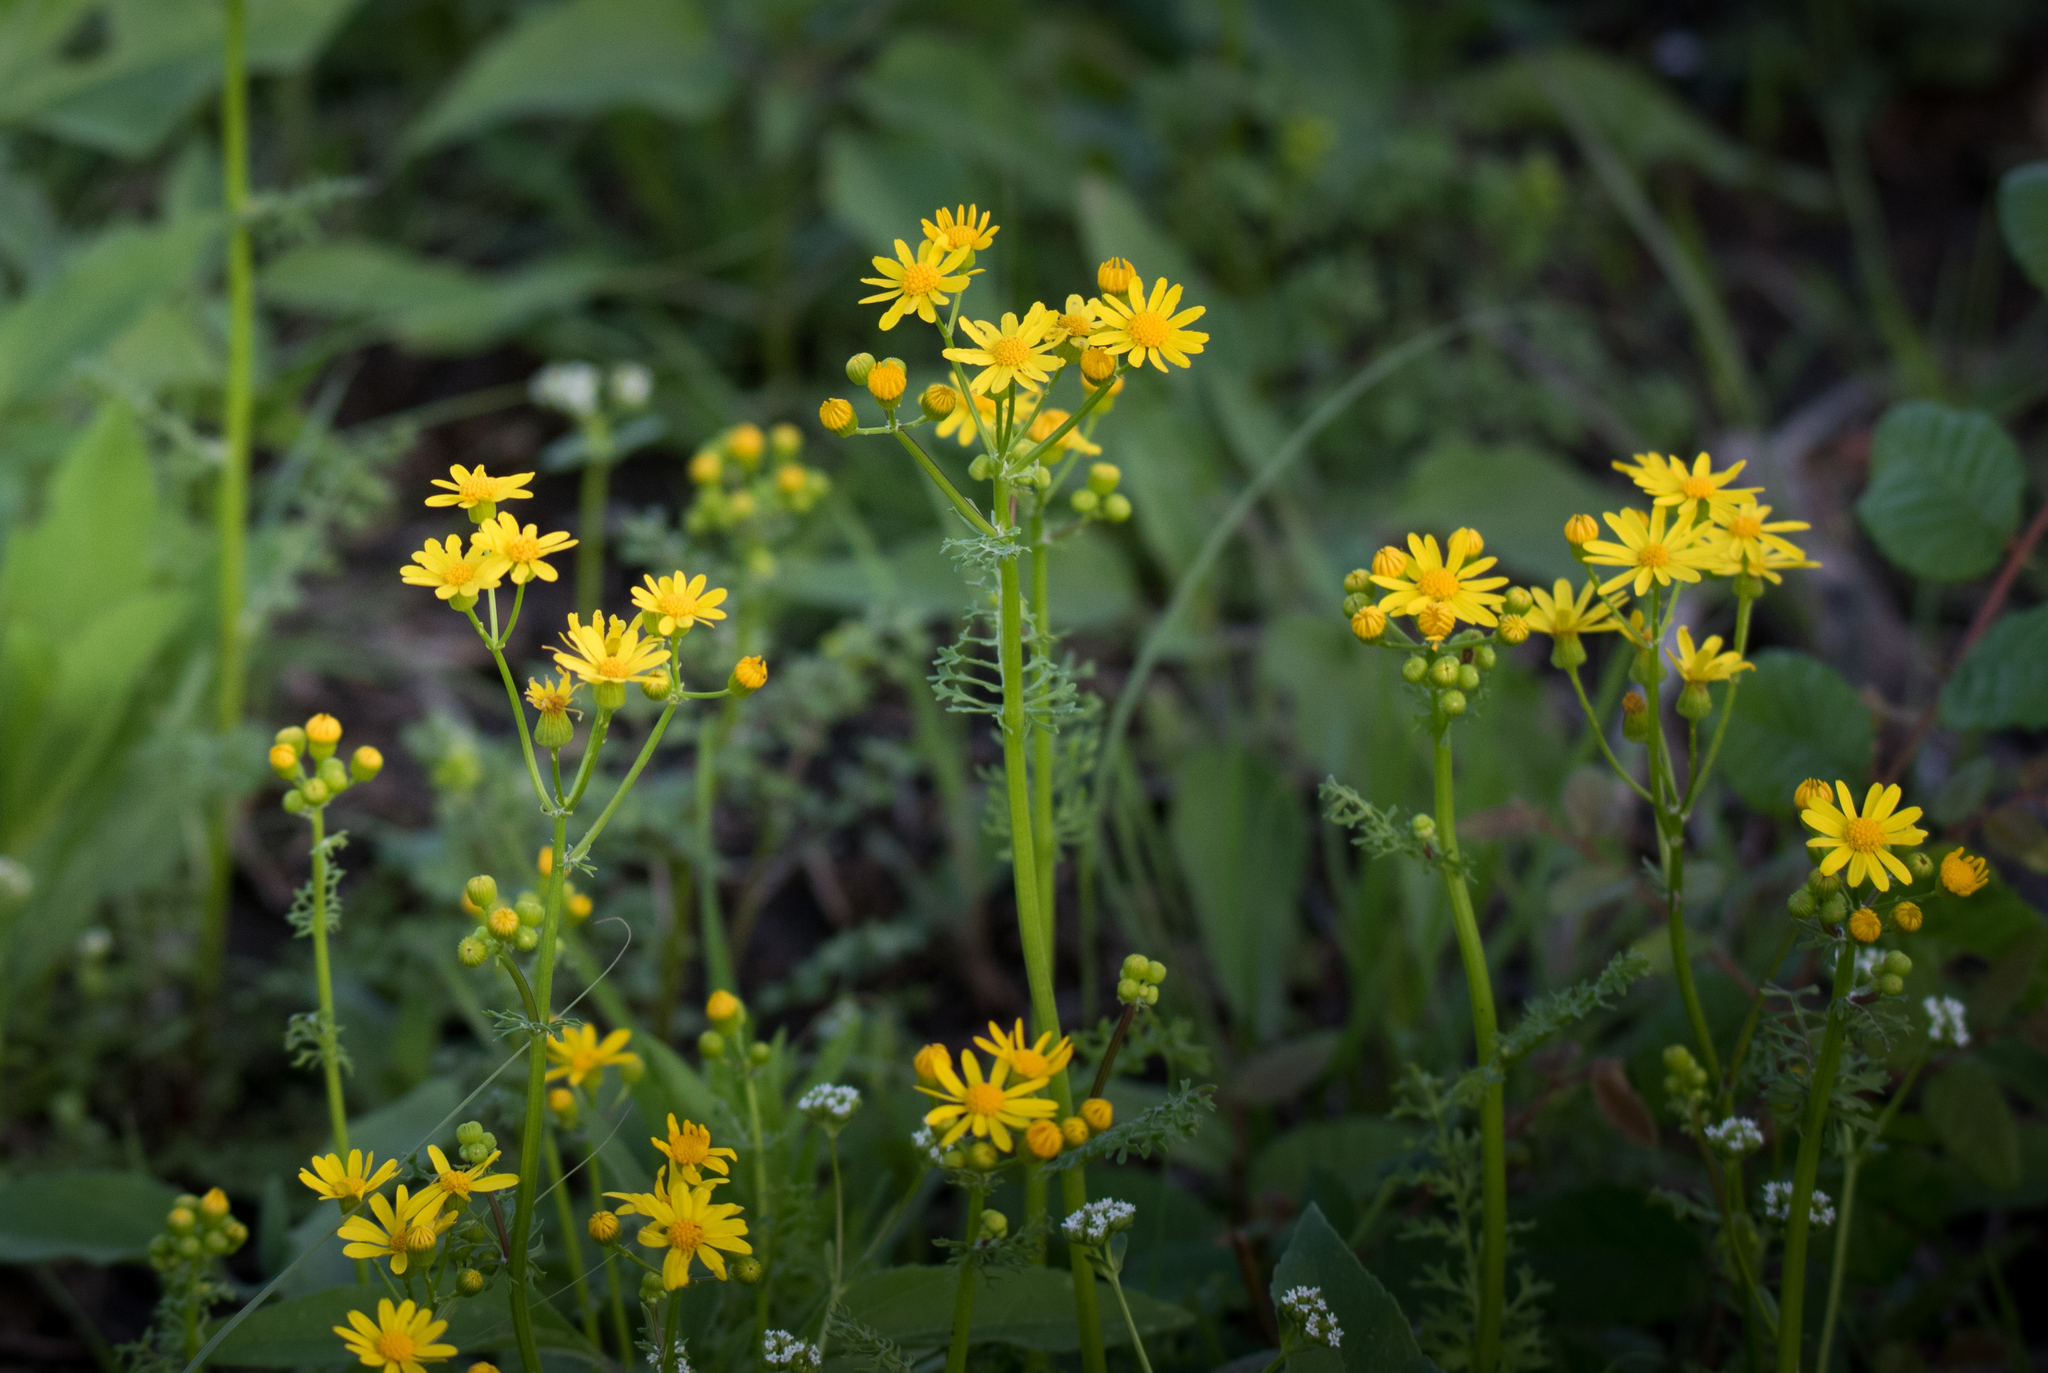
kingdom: Plantae
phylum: Tracheophyta
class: Magnoliopsida
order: Asterales
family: Asteraceae
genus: Packera
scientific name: Packera tampicana
